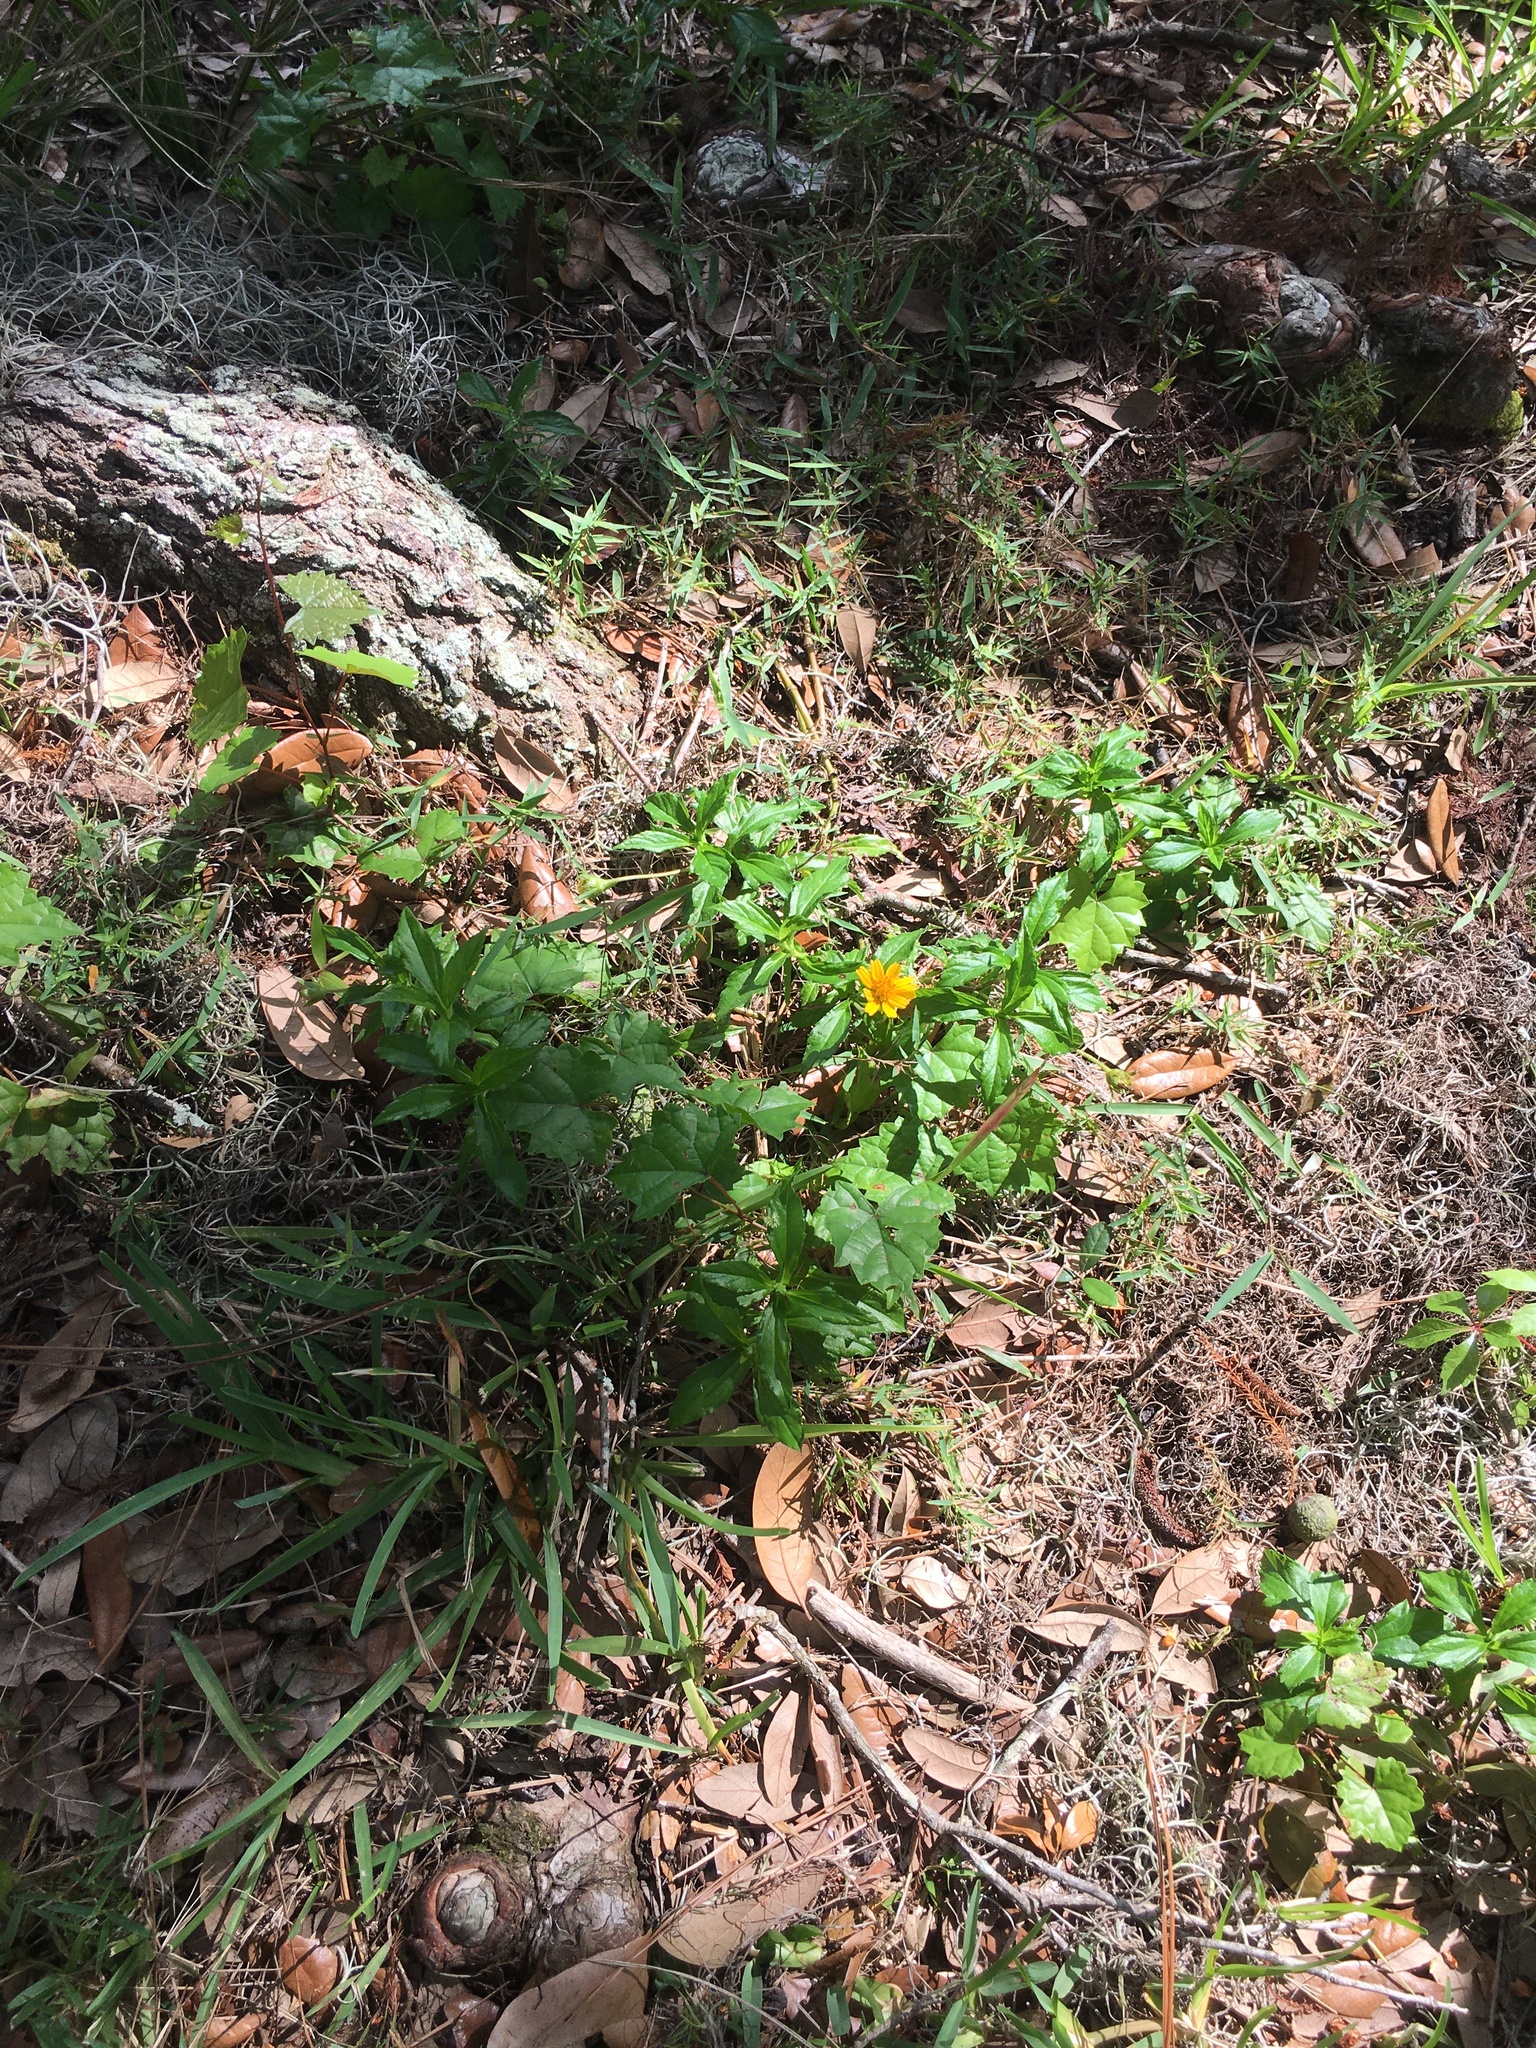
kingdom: Plantae
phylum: Tracheophyta
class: Magnoliopsida
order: Asterales
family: Asteraceae
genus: Sphagneticola
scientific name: Sphagneticola trilobata
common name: Bay biscayne creeping-oxeye
